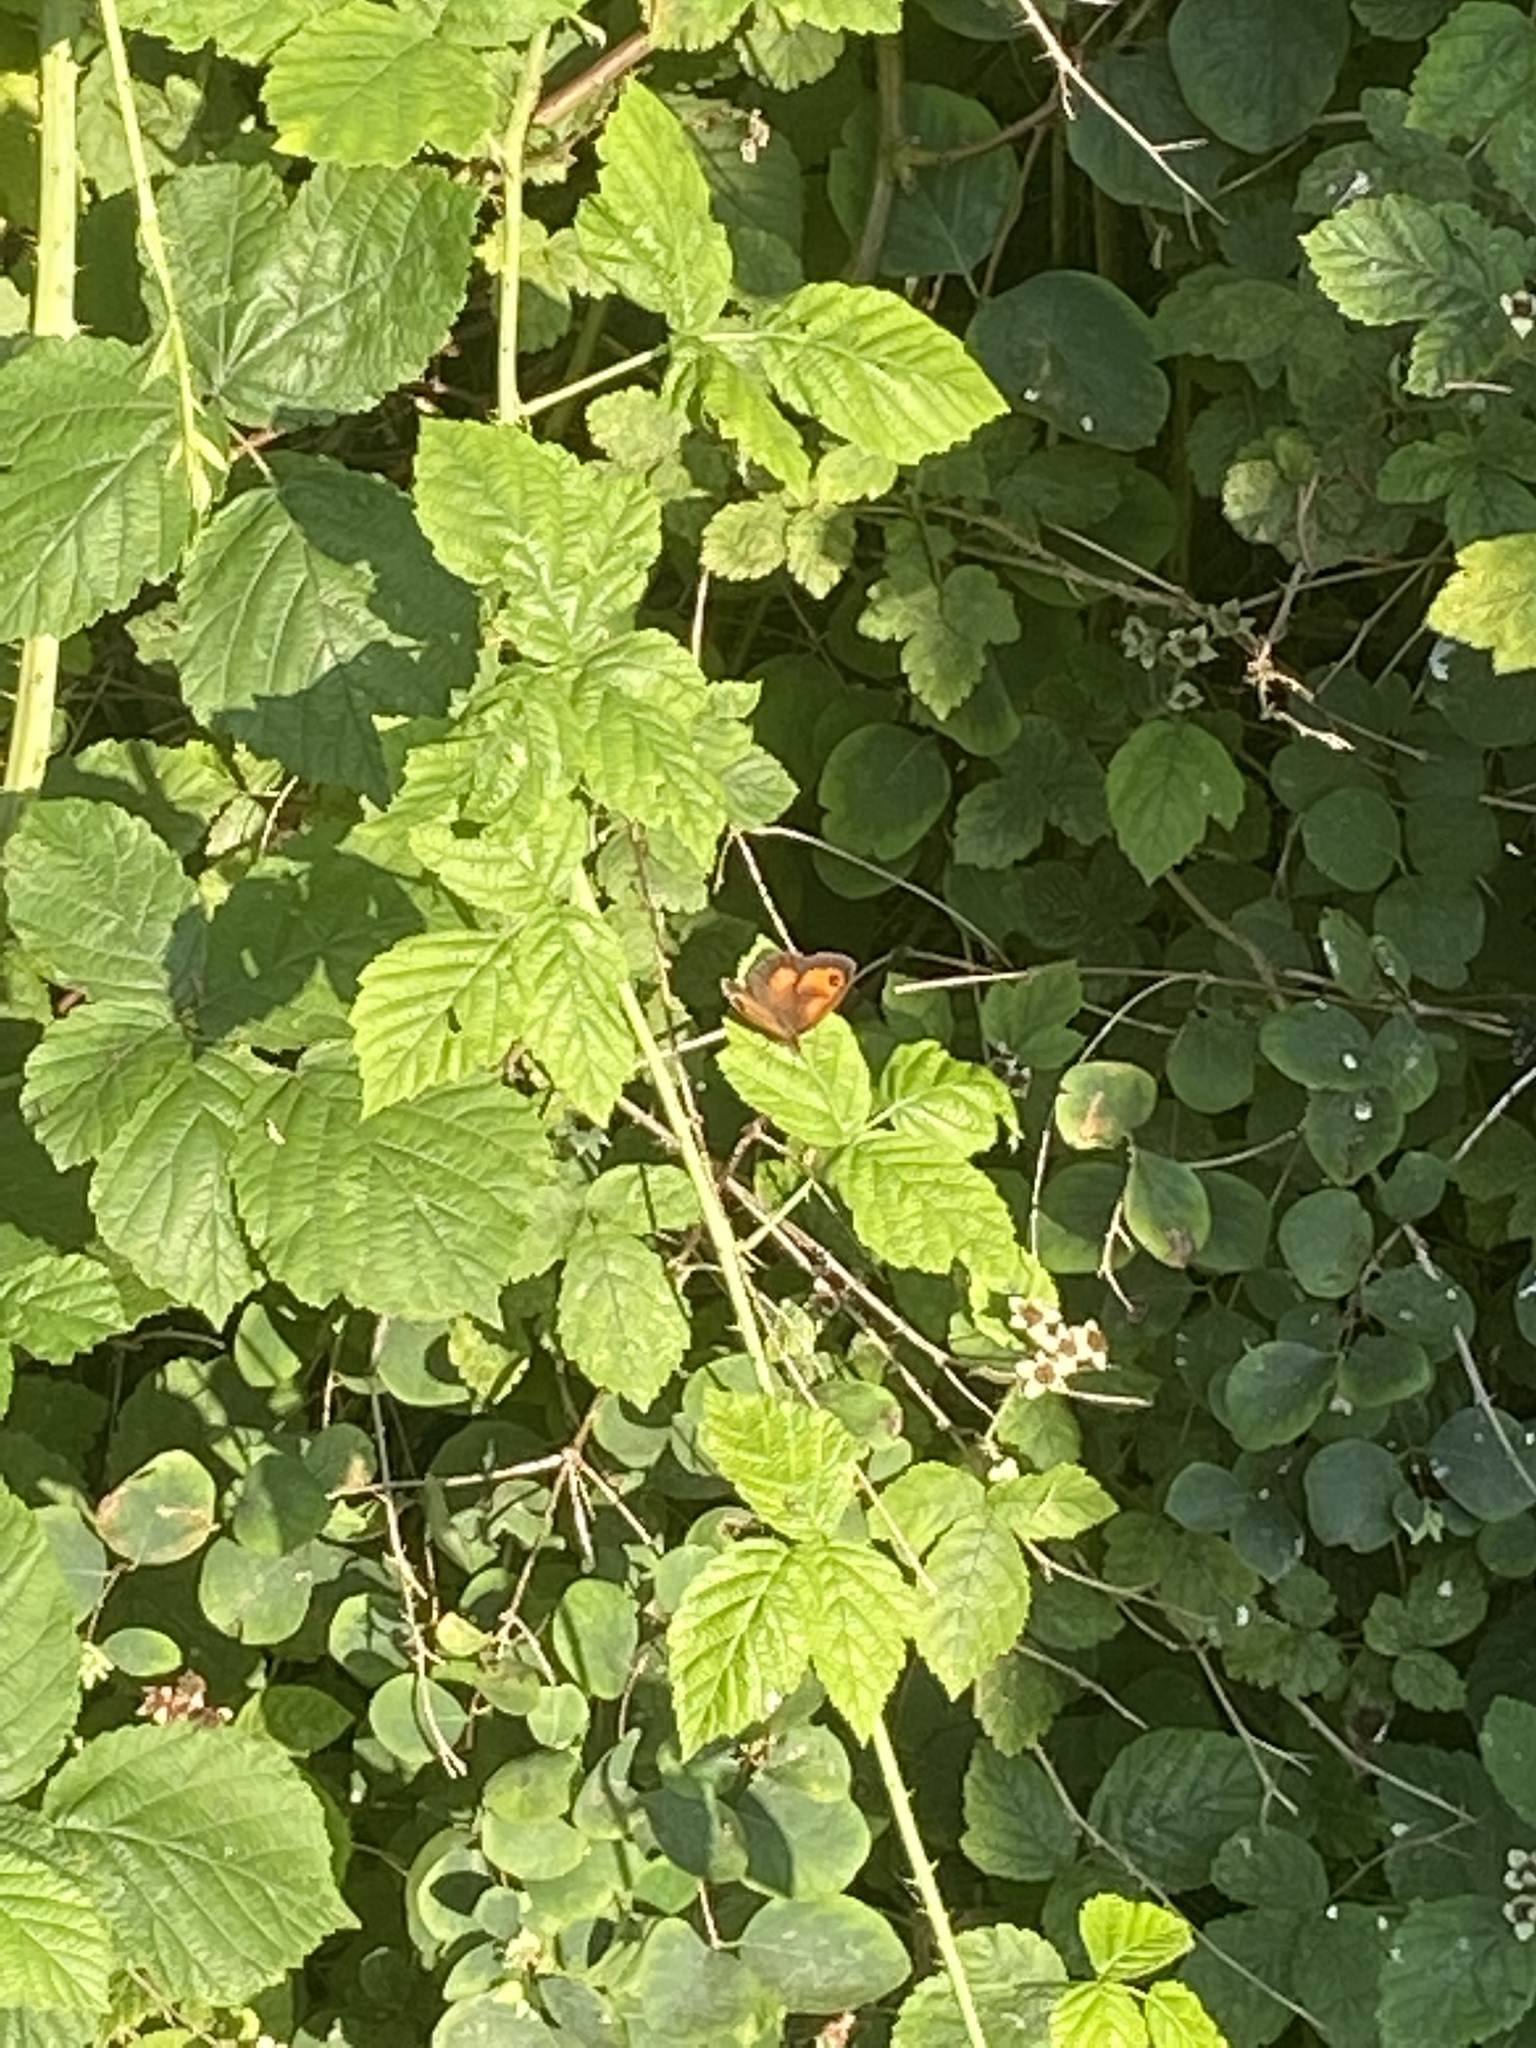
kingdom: Animalia
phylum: Arthropoda
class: Insecta
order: Lepidoptera
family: Nymphalidae
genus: Pyronia
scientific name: Pyronia tithonus
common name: Gatekeeper
